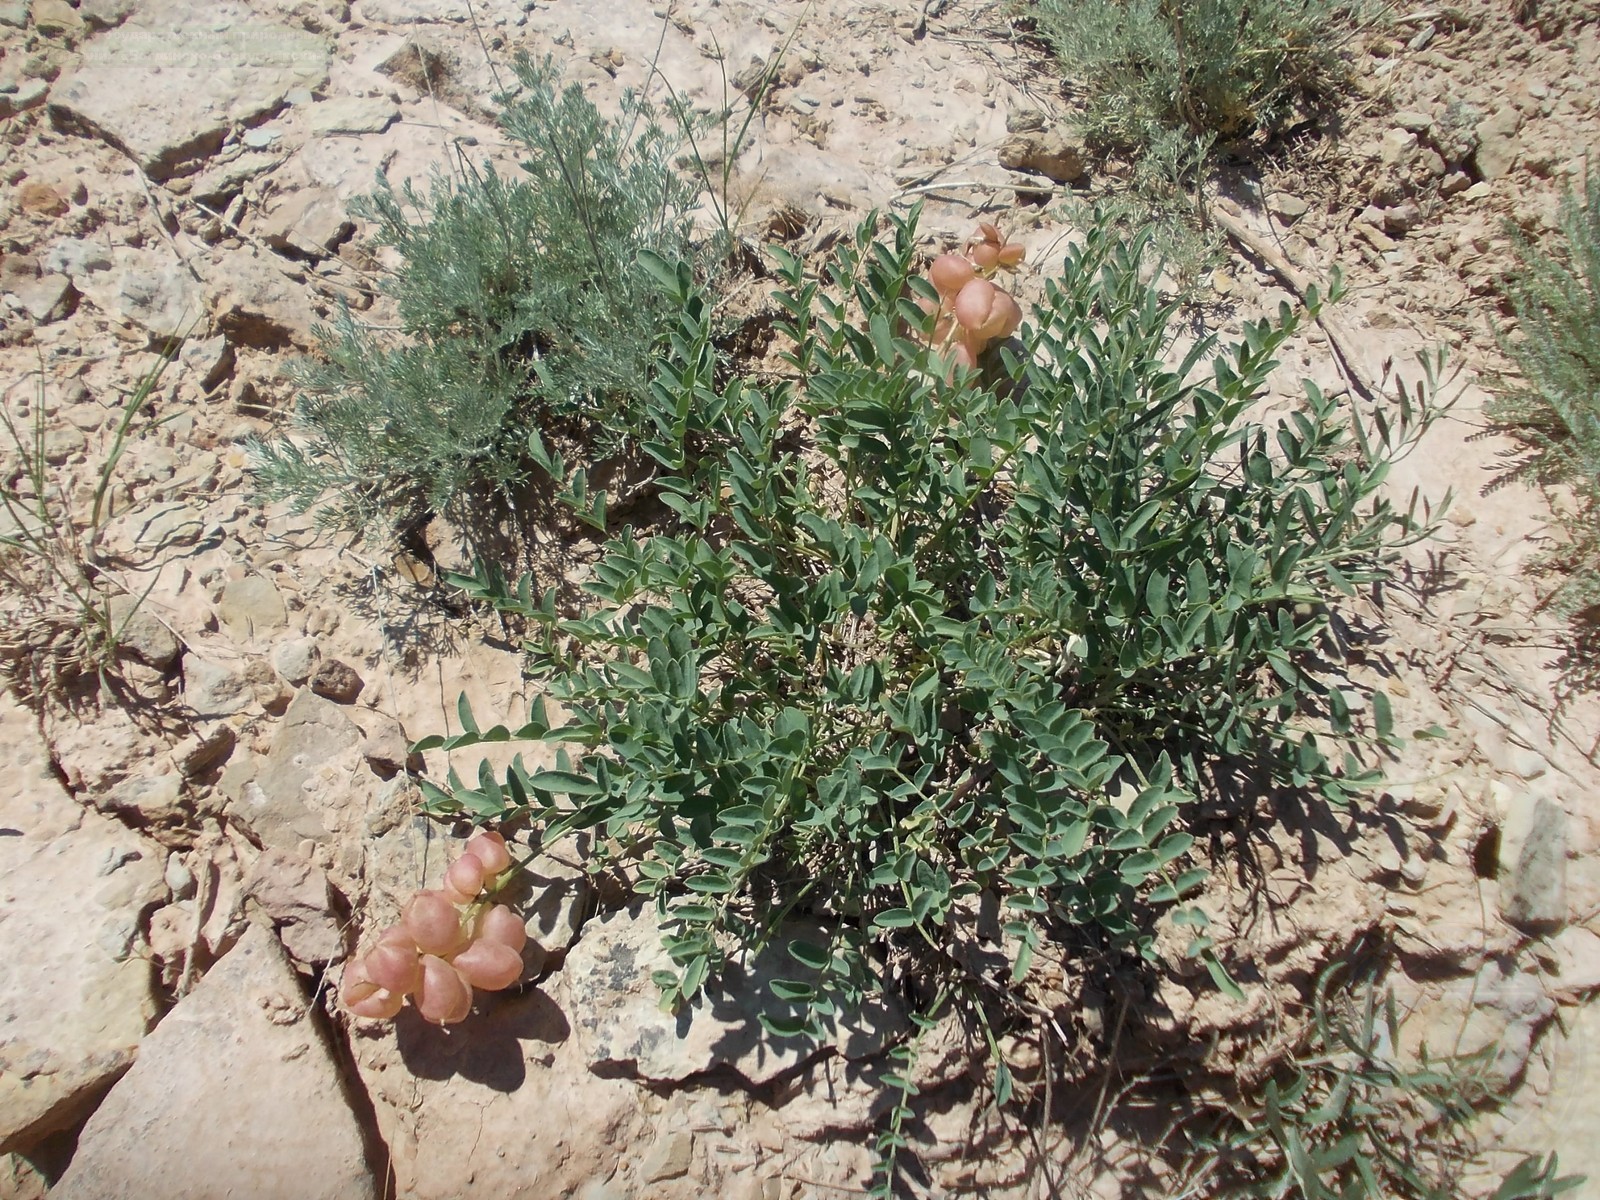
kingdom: Plantae
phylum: Tracheophyta
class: Magnoliopsida
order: Fabales
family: Fabaceae
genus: Astragalus
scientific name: Astragalus physodes
